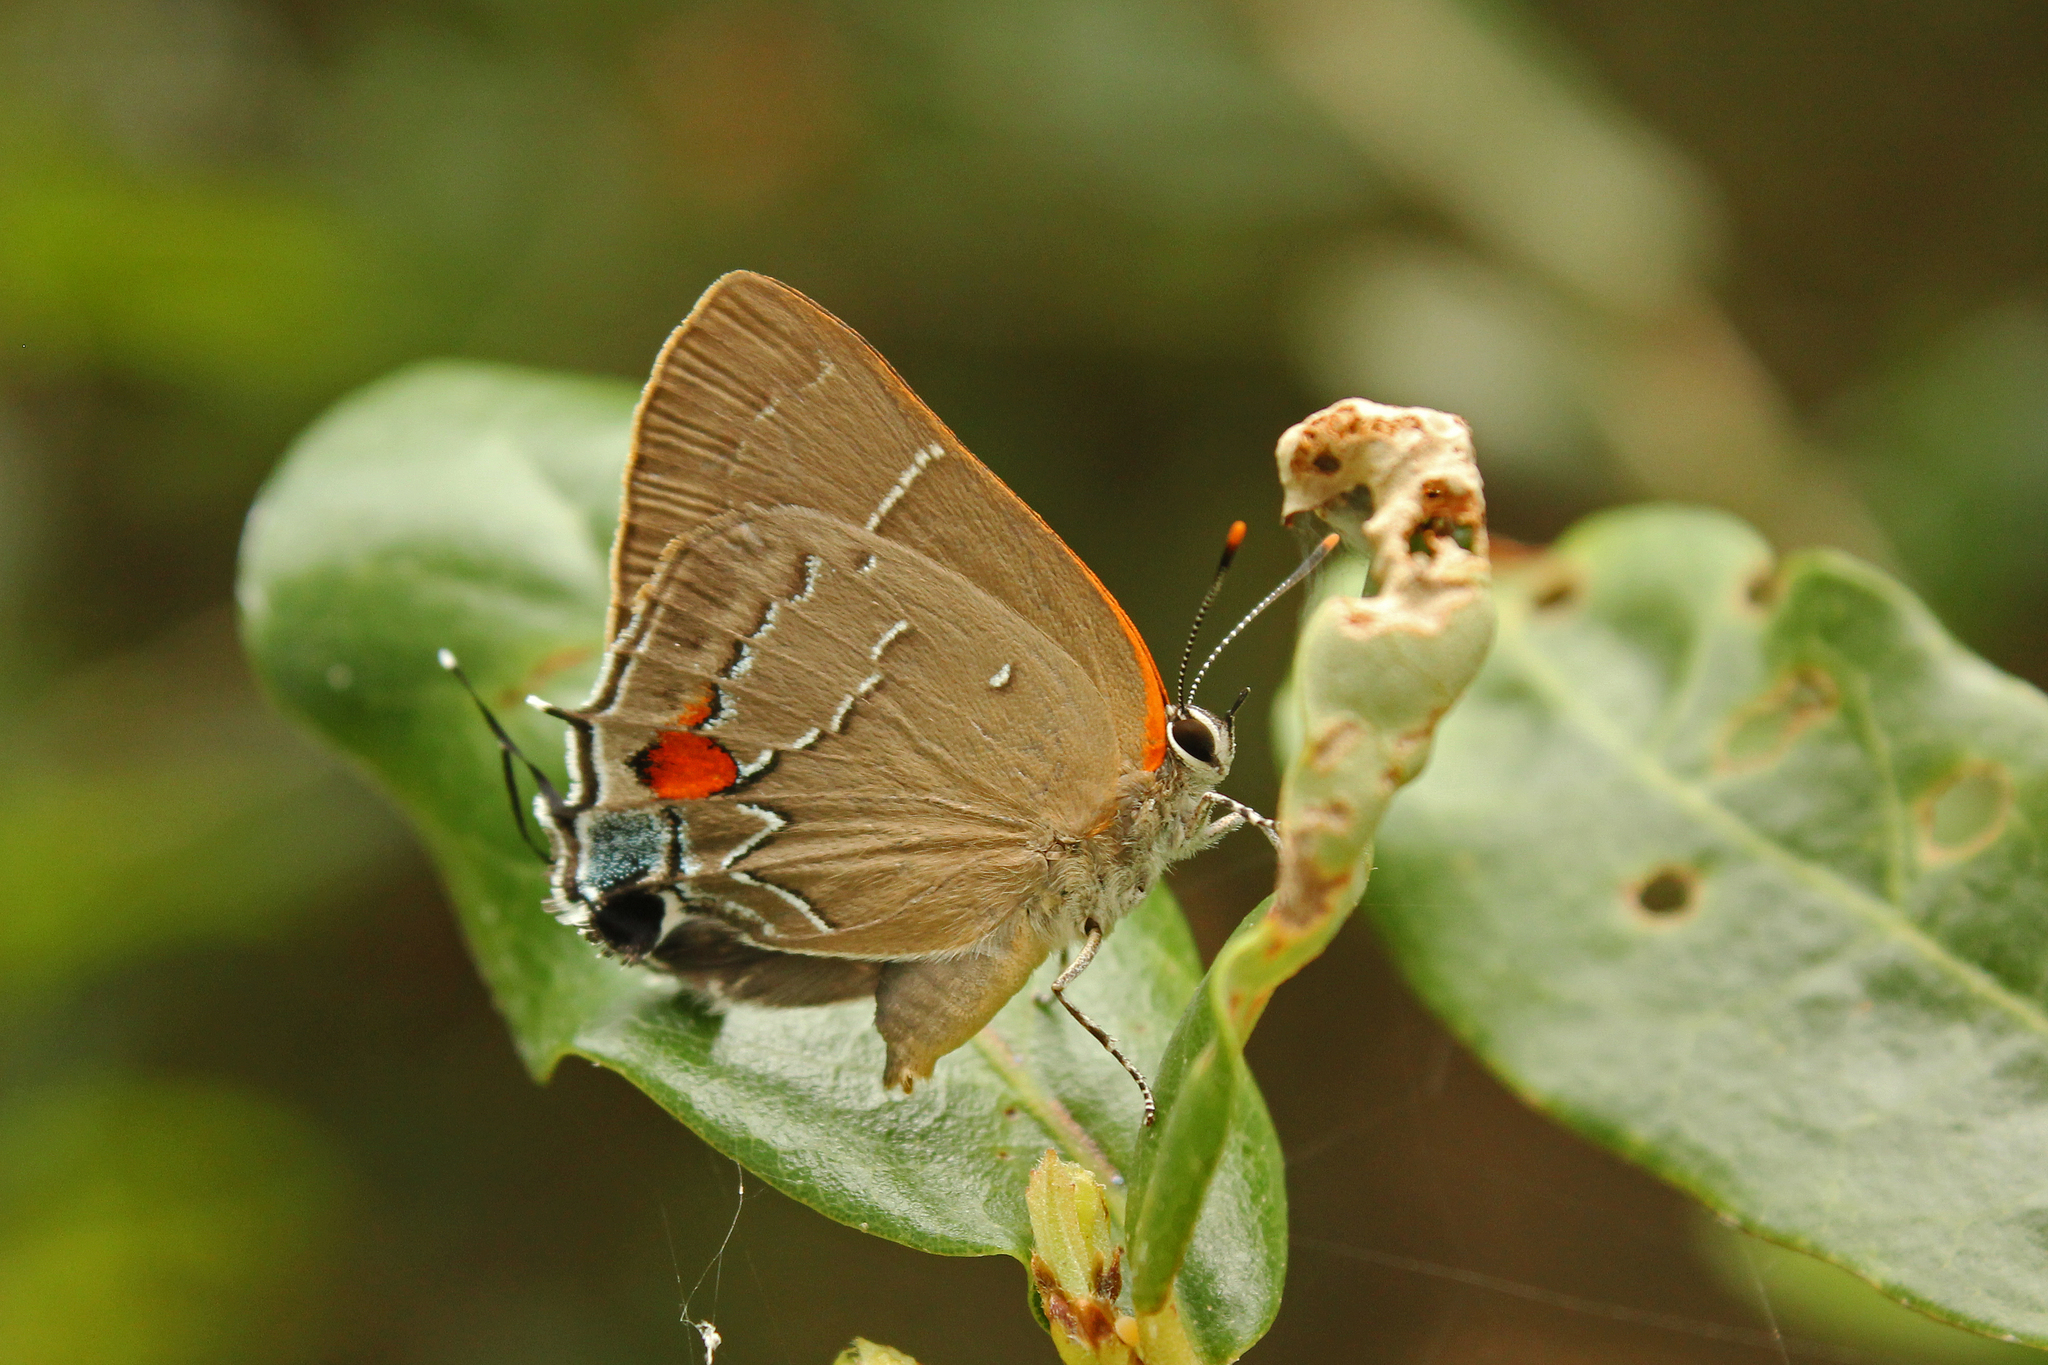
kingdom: Animalia
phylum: Arthropoda
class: Insecta
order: Lepidoptera
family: Lycaenidae
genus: Parrhasius
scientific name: Parrhasius m-album
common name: White m hairstreak
